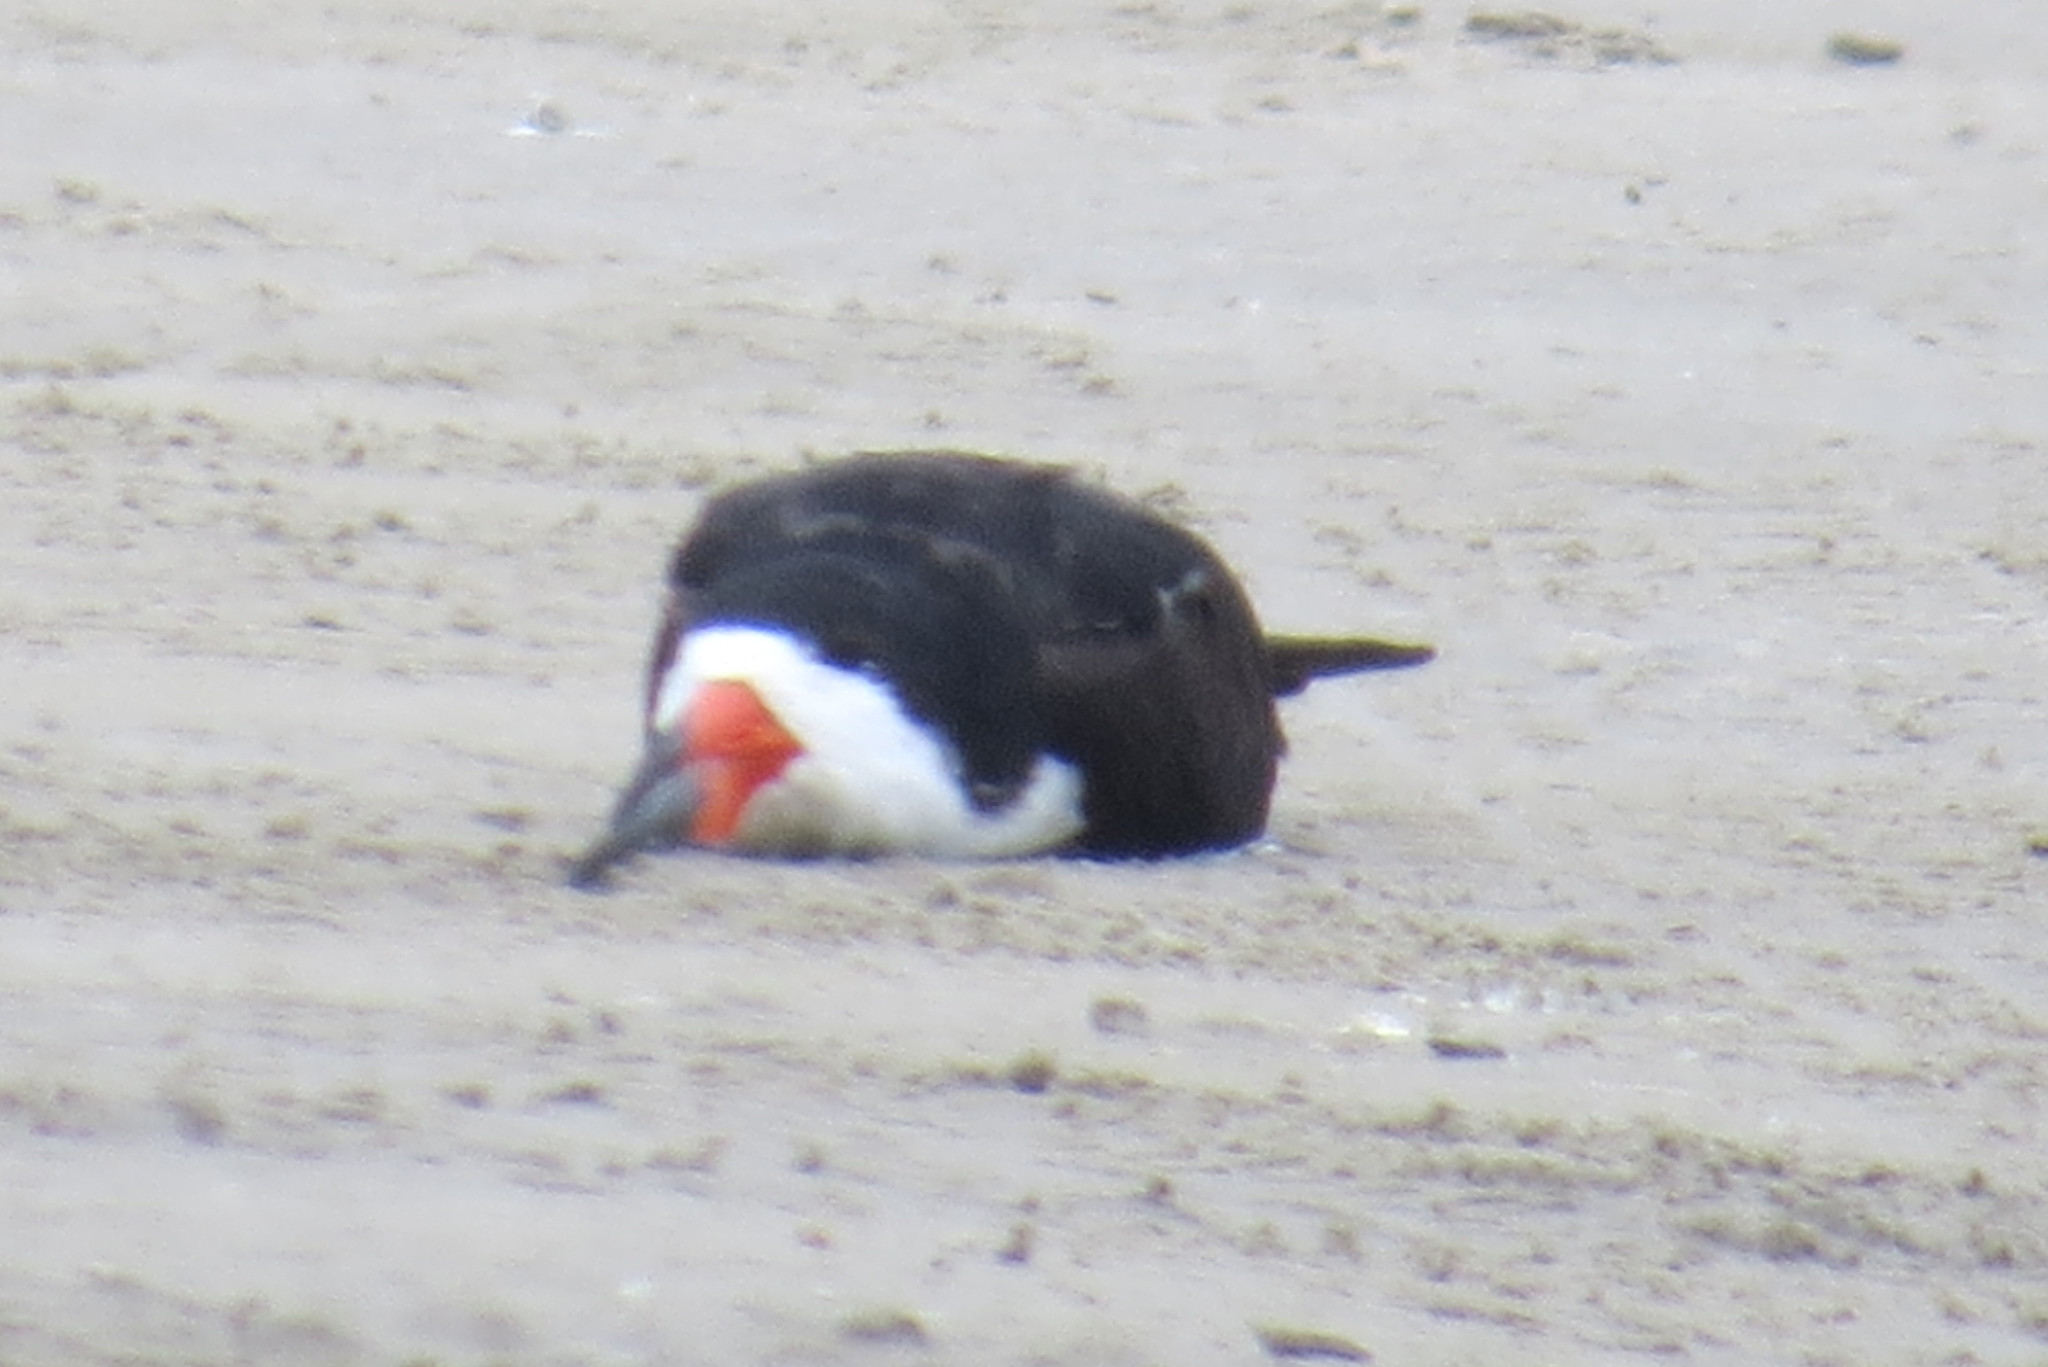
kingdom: Animalia
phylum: Chordata
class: Aves
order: Charadriiformes
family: Laridae
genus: Rynchops
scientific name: Rynchops niger
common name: Black skimmer
